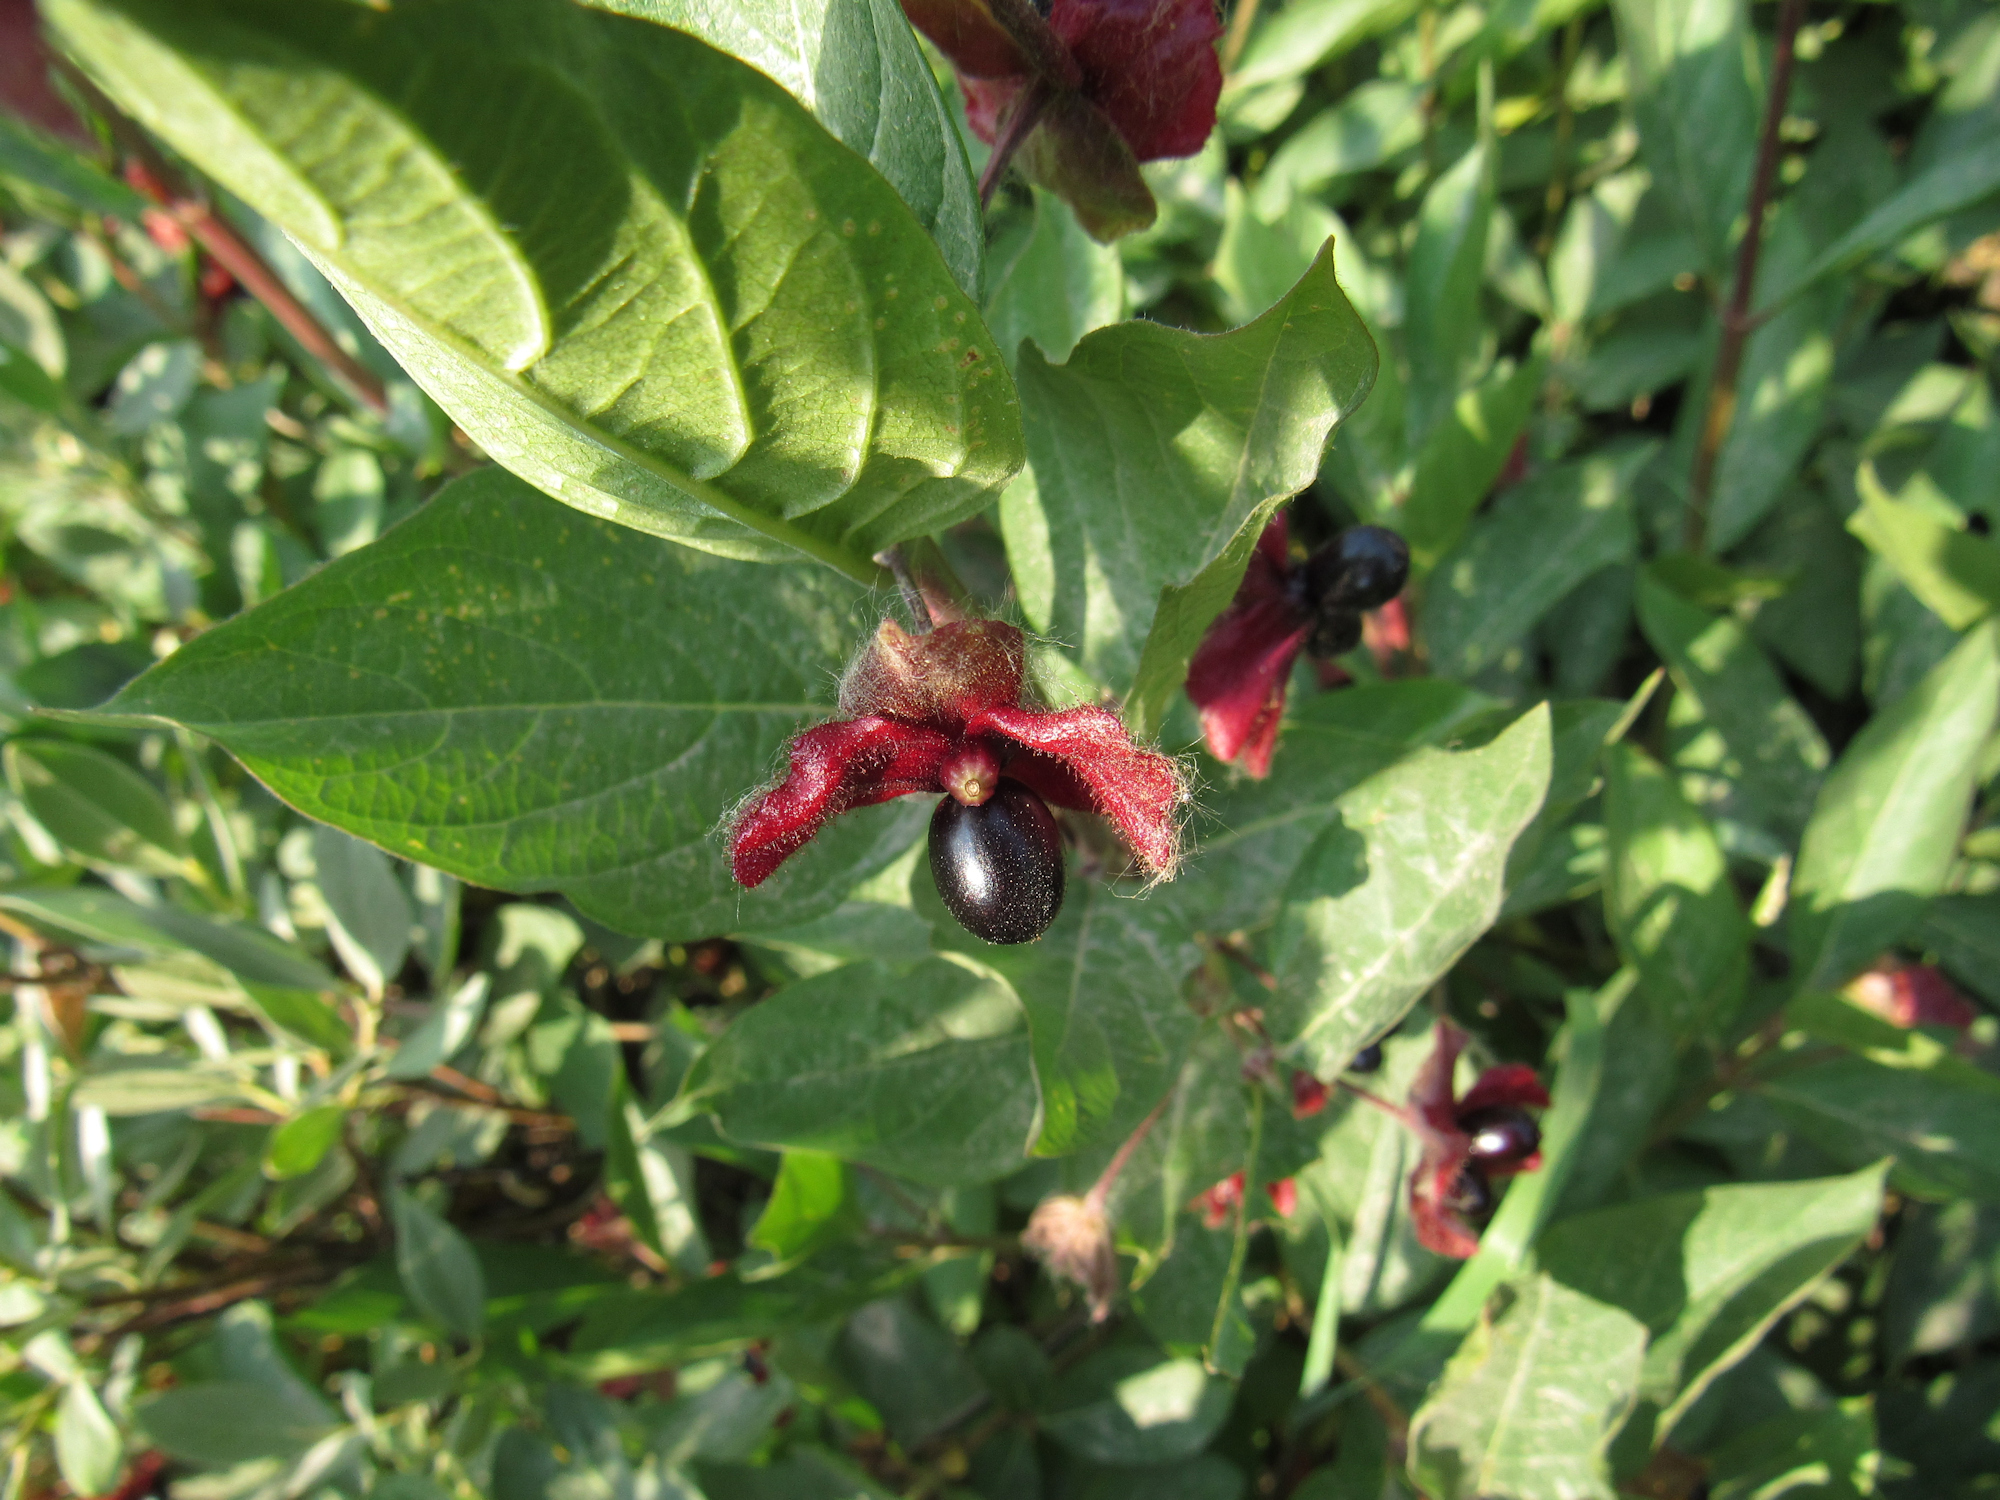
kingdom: Plantae
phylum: Tracheophyta
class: Magnoliopsida
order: Dipsacales
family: Caprifoliaceae
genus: Lonicera
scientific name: Lonicera involucrata
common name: Californian honeysuckle
